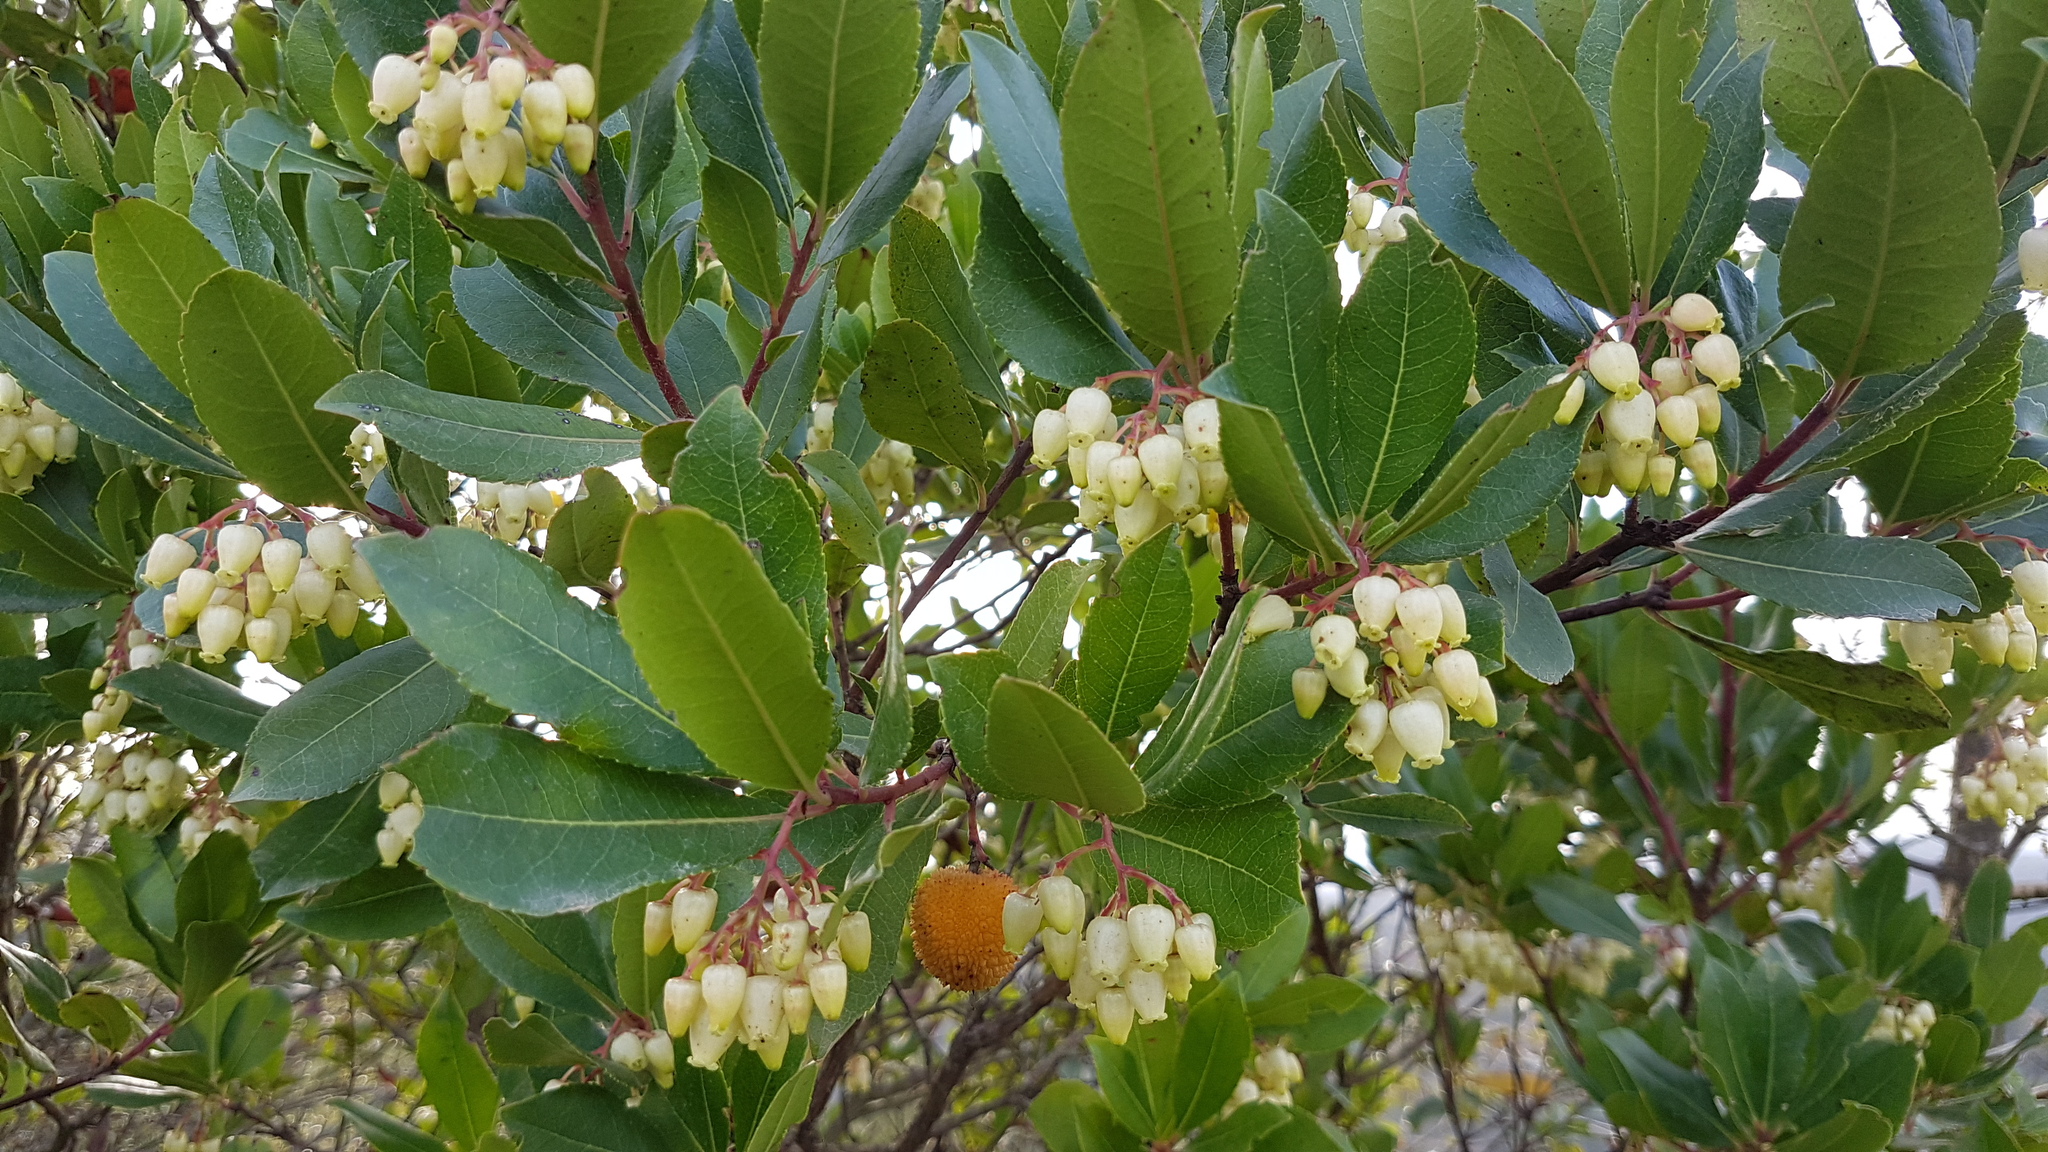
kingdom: Plantae
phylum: Tracheophyta
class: Magnoliopsida
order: Ericales
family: Ericaceae
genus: Arbutus
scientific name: Arbutus unedo
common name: Strawberry-tree
